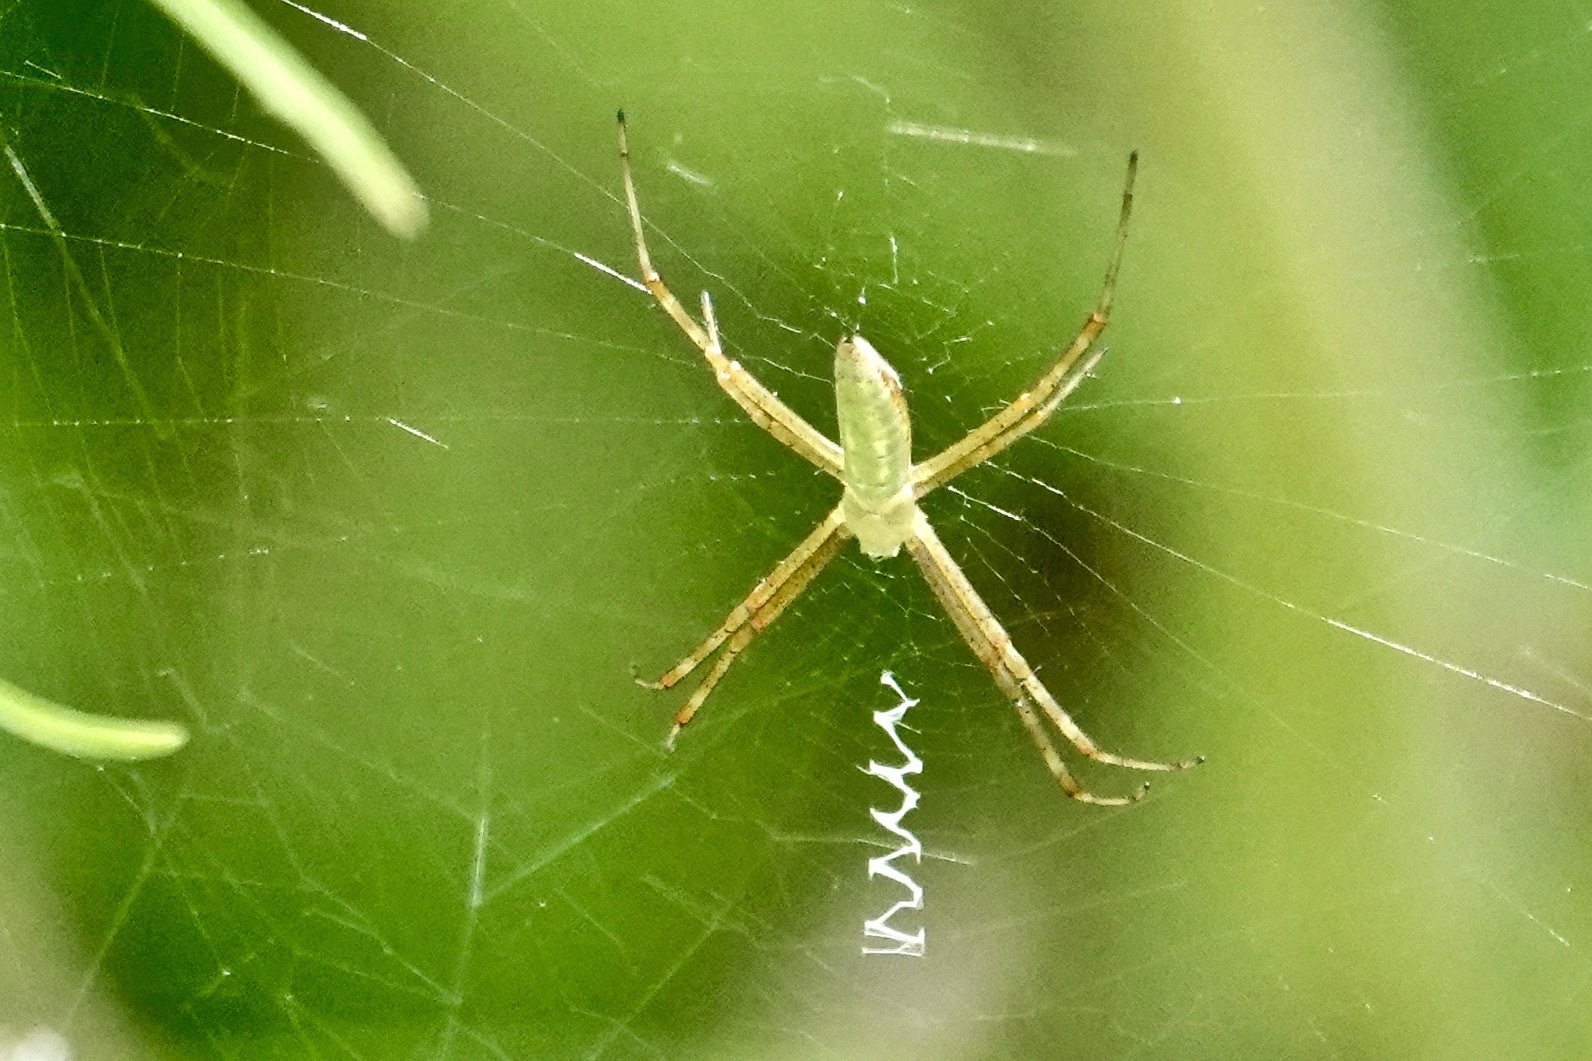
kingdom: Animalia
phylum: Arthropoda
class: Arachnida
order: Araneae
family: Araneidae
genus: Argiope
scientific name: Argiope trifasciata
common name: Banded garden spider
